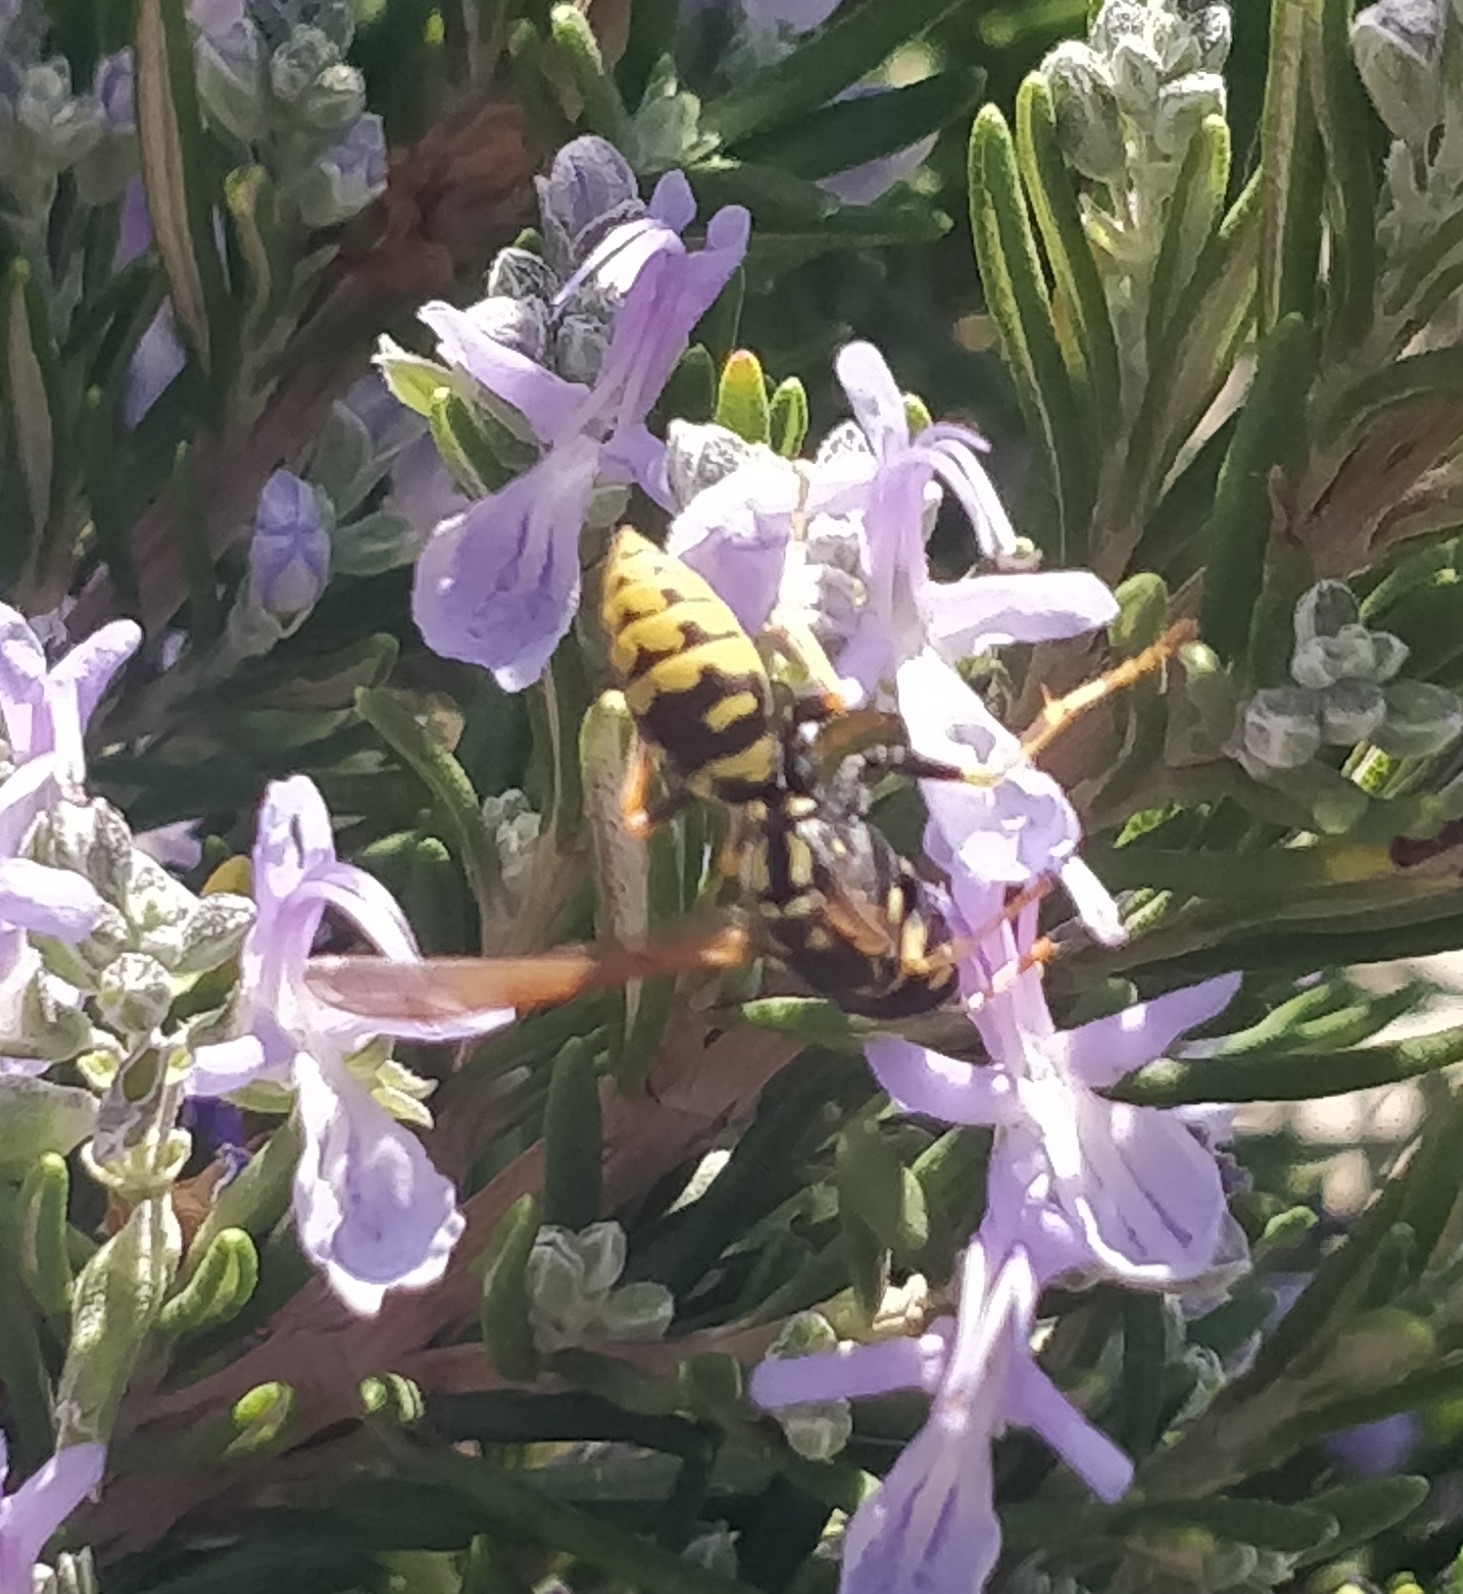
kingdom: Animalia
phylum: Arthropoda
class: Insecta
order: Hymenoptera
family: Eumenidae
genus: Polistes
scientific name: Polistes dominula
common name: Paper wasp
